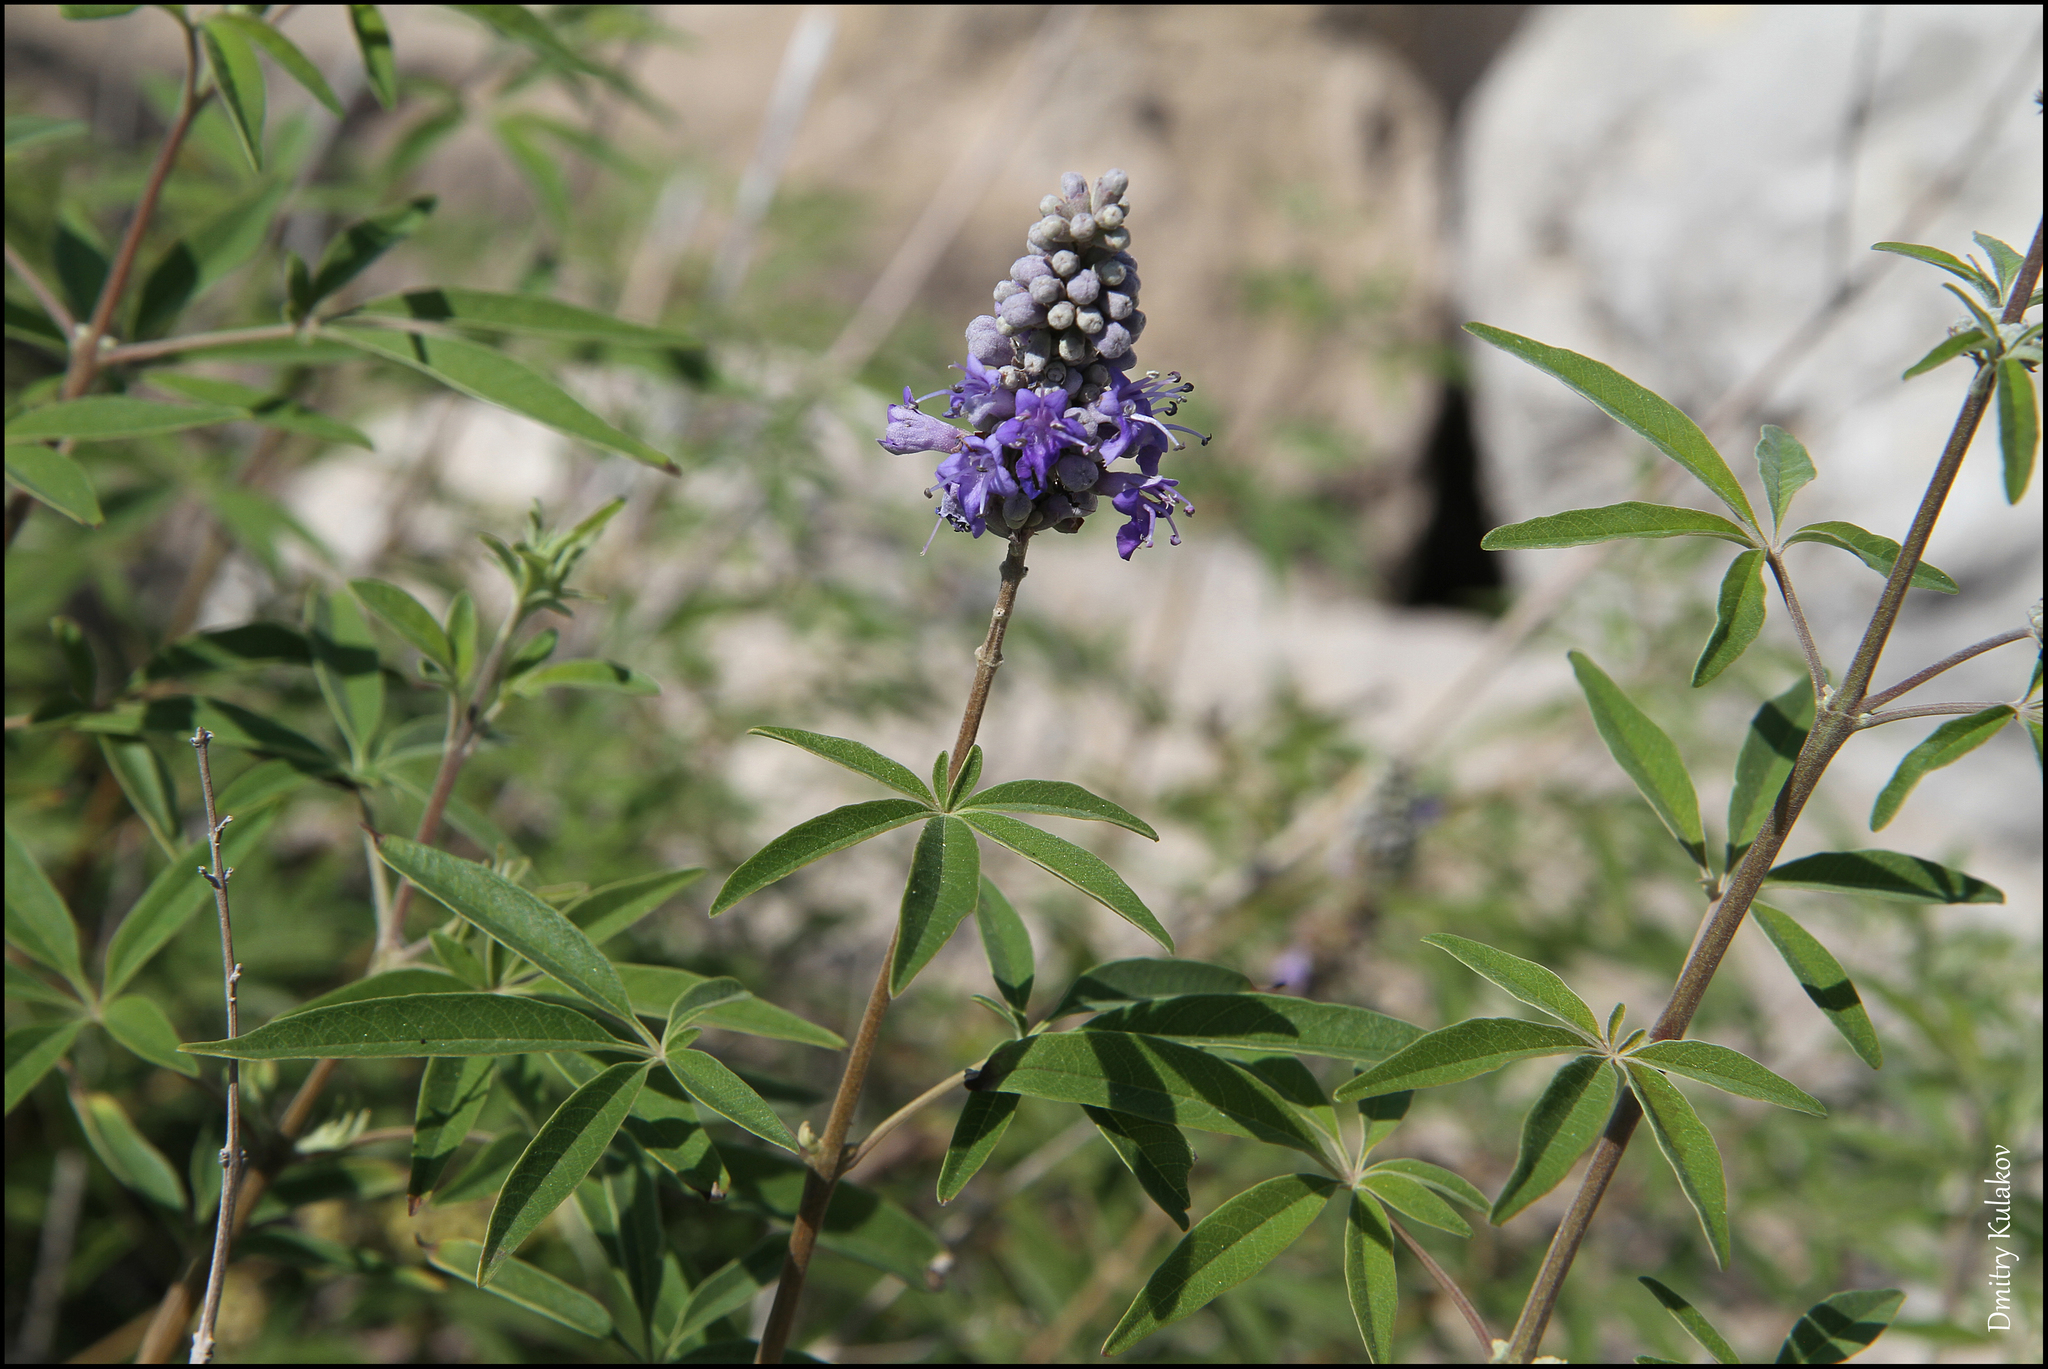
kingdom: Plantae
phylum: Tracheophyta
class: Magnoliopsida
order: Lamiales
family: Lamiaceae
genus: Vitex
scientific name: Vitex agnus-castus
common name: Chasteberry
